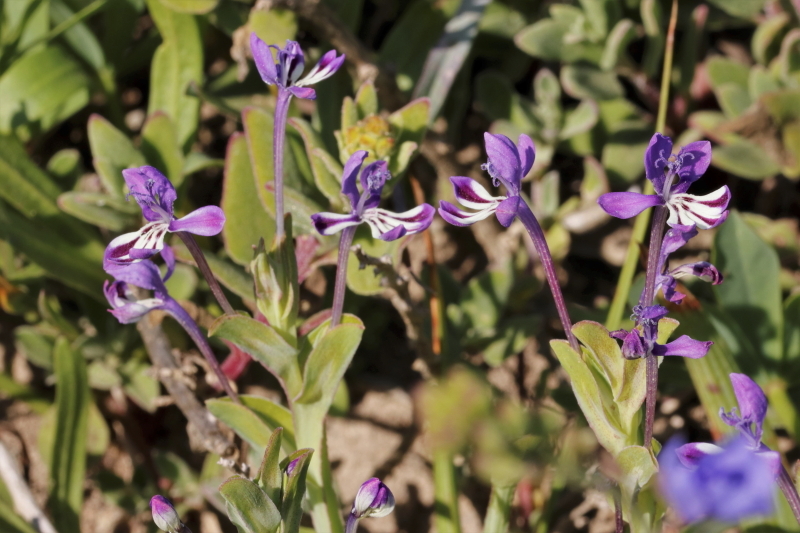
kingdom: Plantae
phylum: Tracheophyta
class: Liliopsida
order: Asparagales
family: Iridaceae
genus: Lapeirousia
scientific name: Lapeirousia jacquinii
